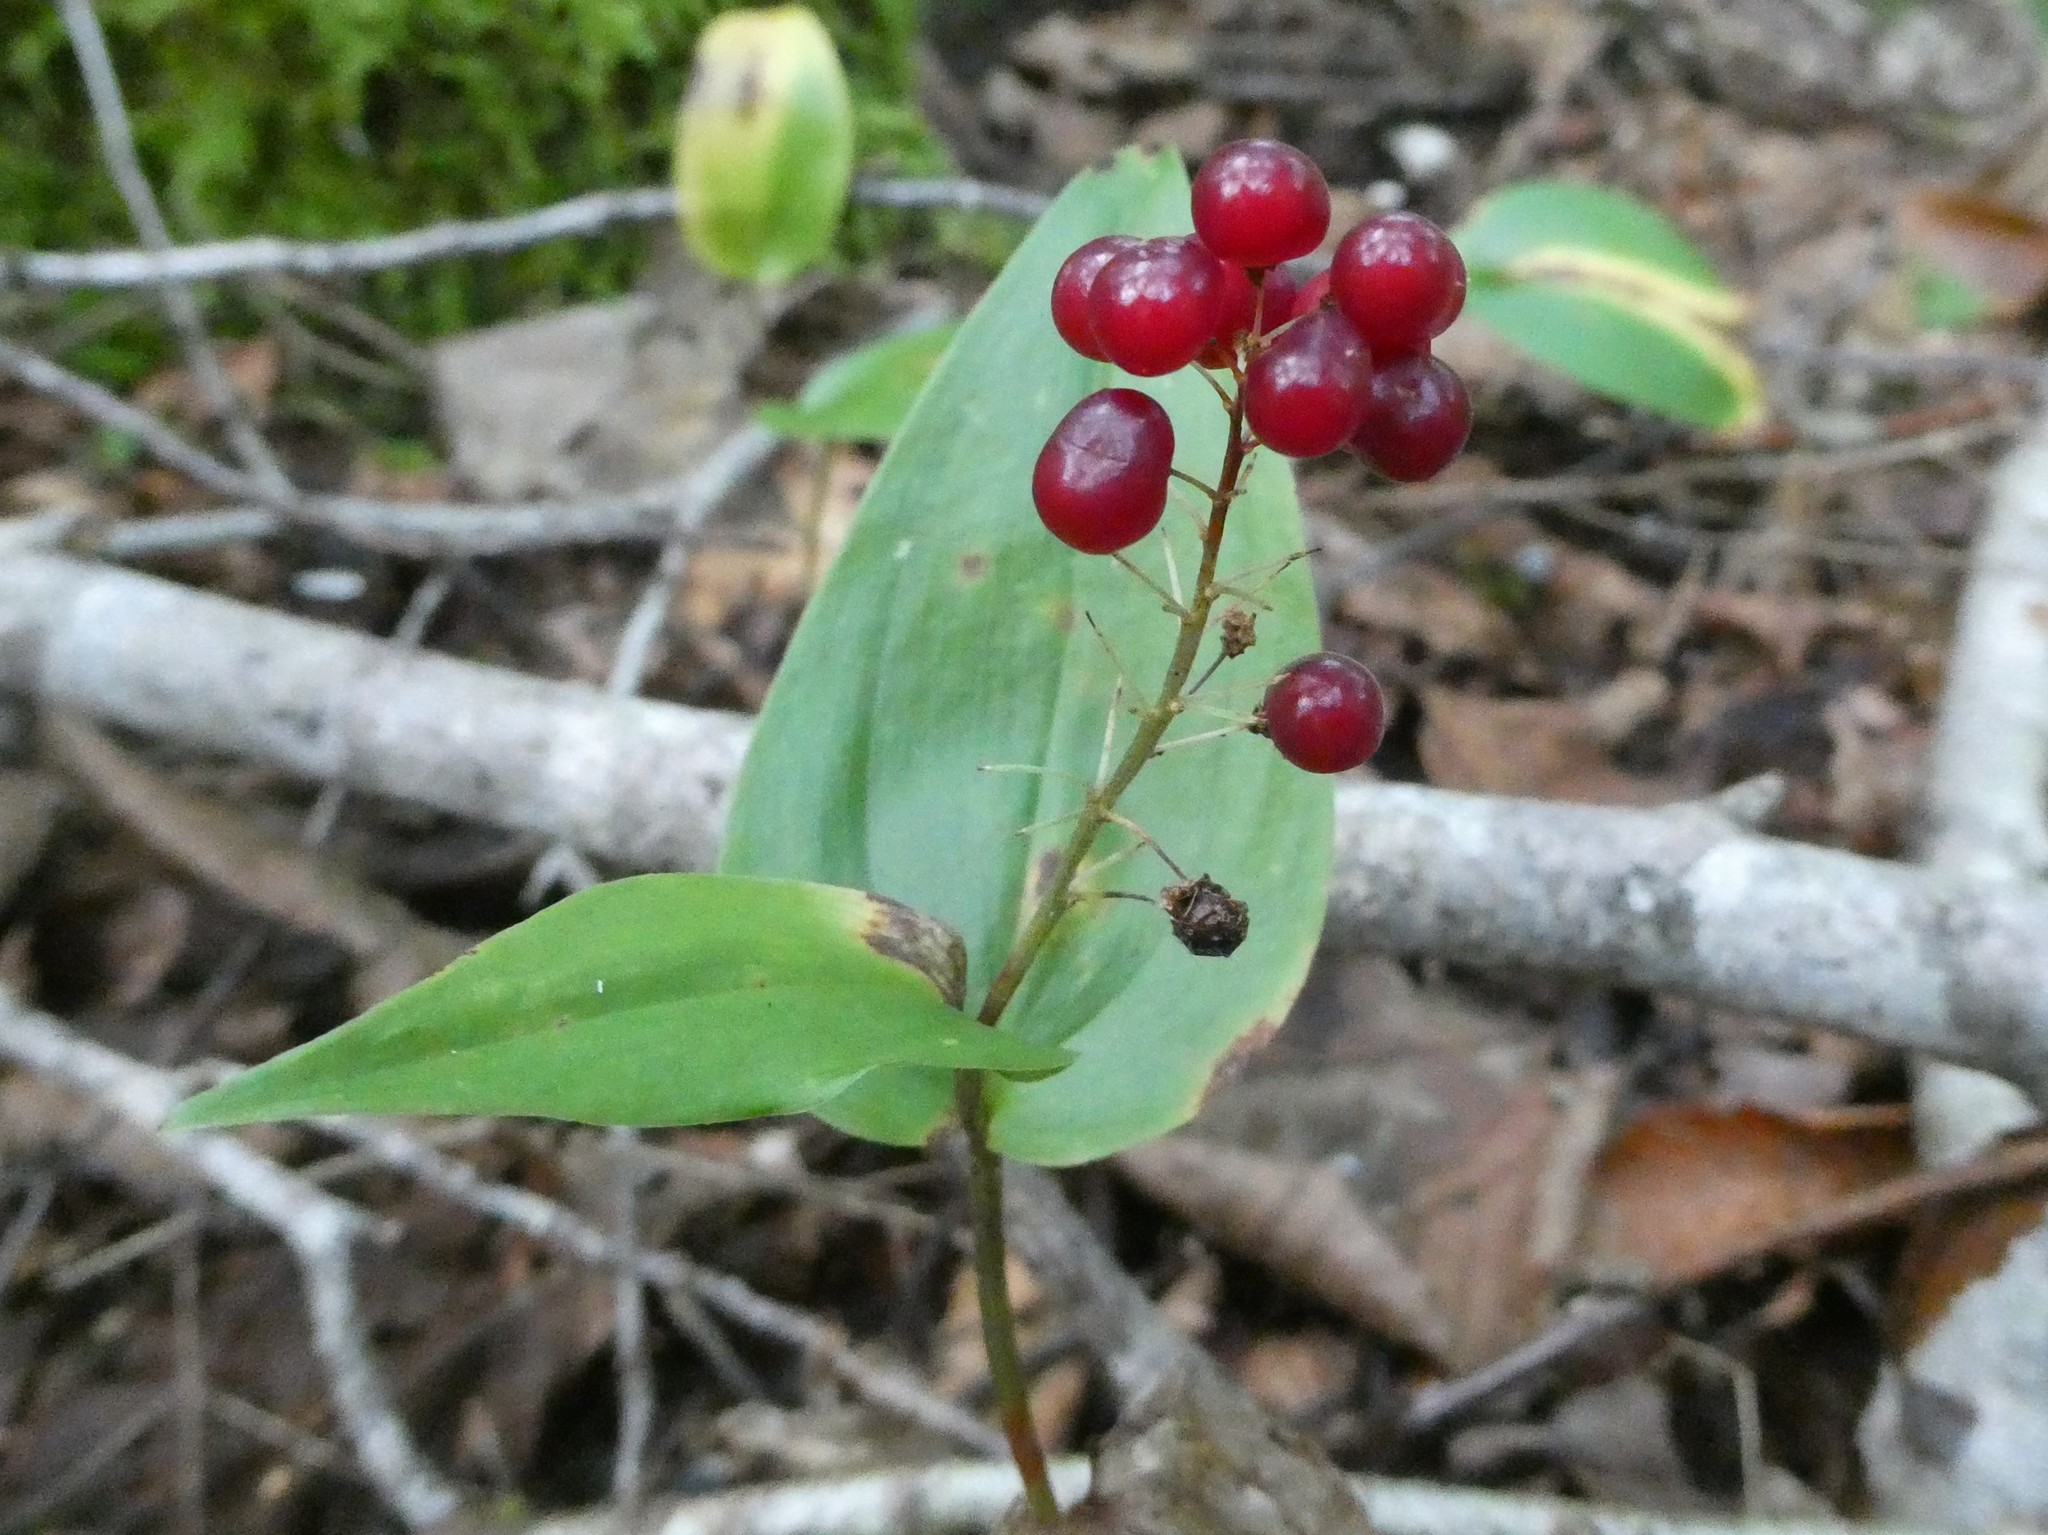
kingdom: Plantae
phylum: Tracheophyta
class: Liliopsida
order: Asparagales
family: Asparagaceae
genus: Maianthemum
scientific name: Maianthemum canadense
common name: False lily-of-the-valley
